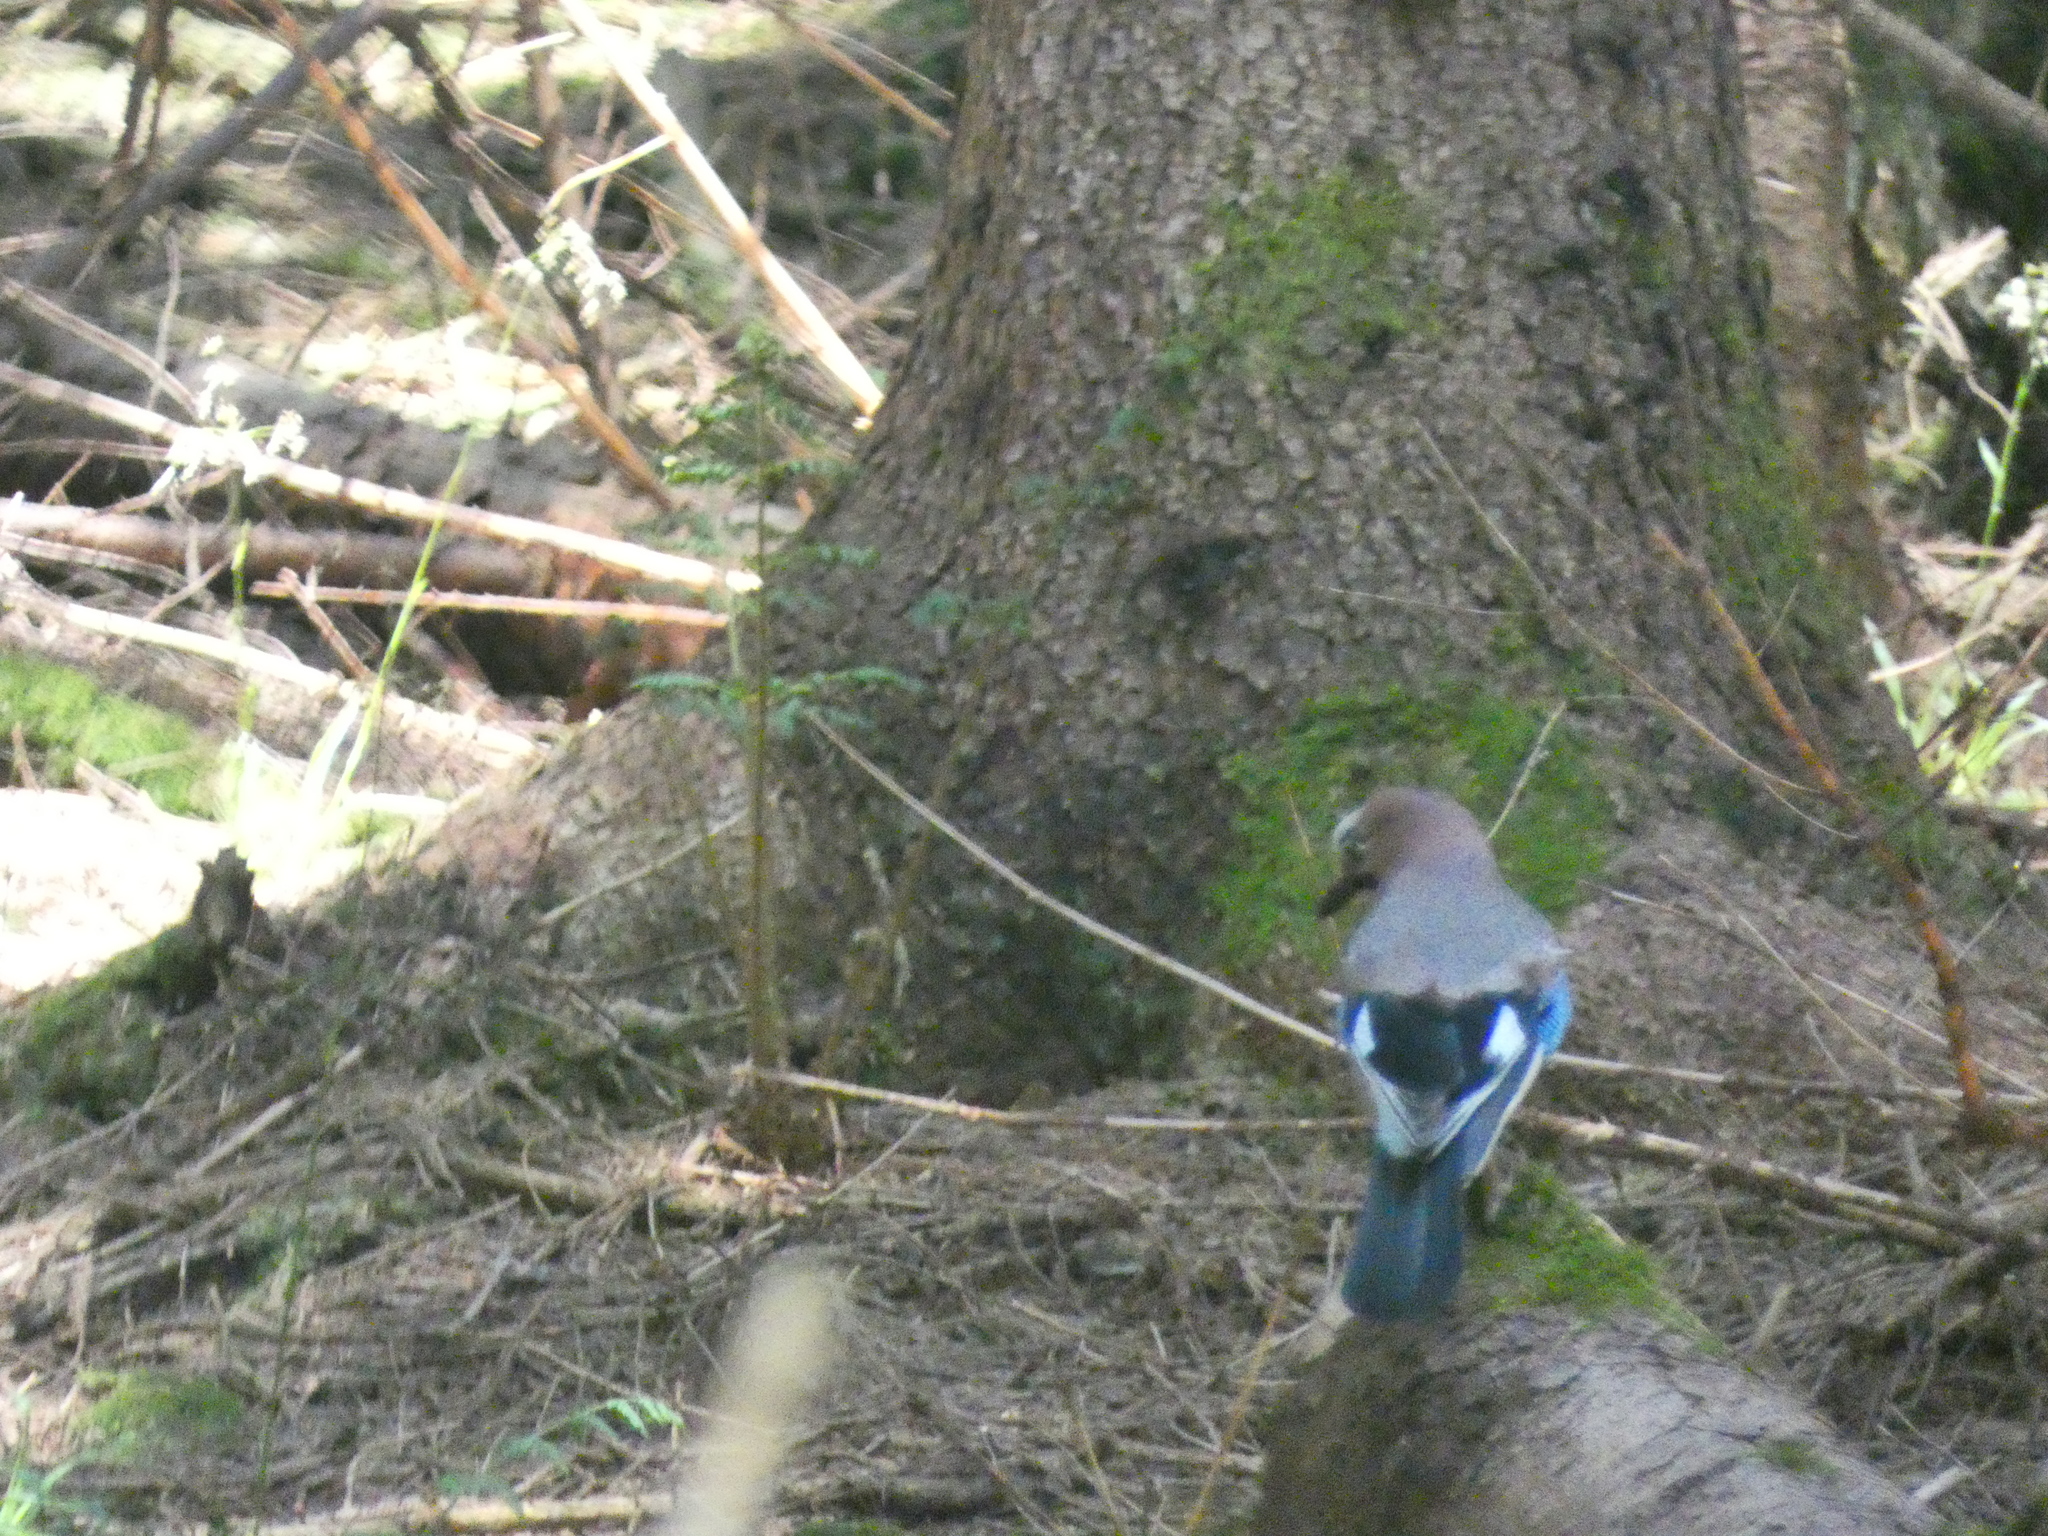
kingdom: Animalia
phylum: Chordata
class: Aves
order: Passeriformes
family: Corvidae
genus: Garrulus
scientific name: Garrulus glandarius
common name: Eurasian jay
